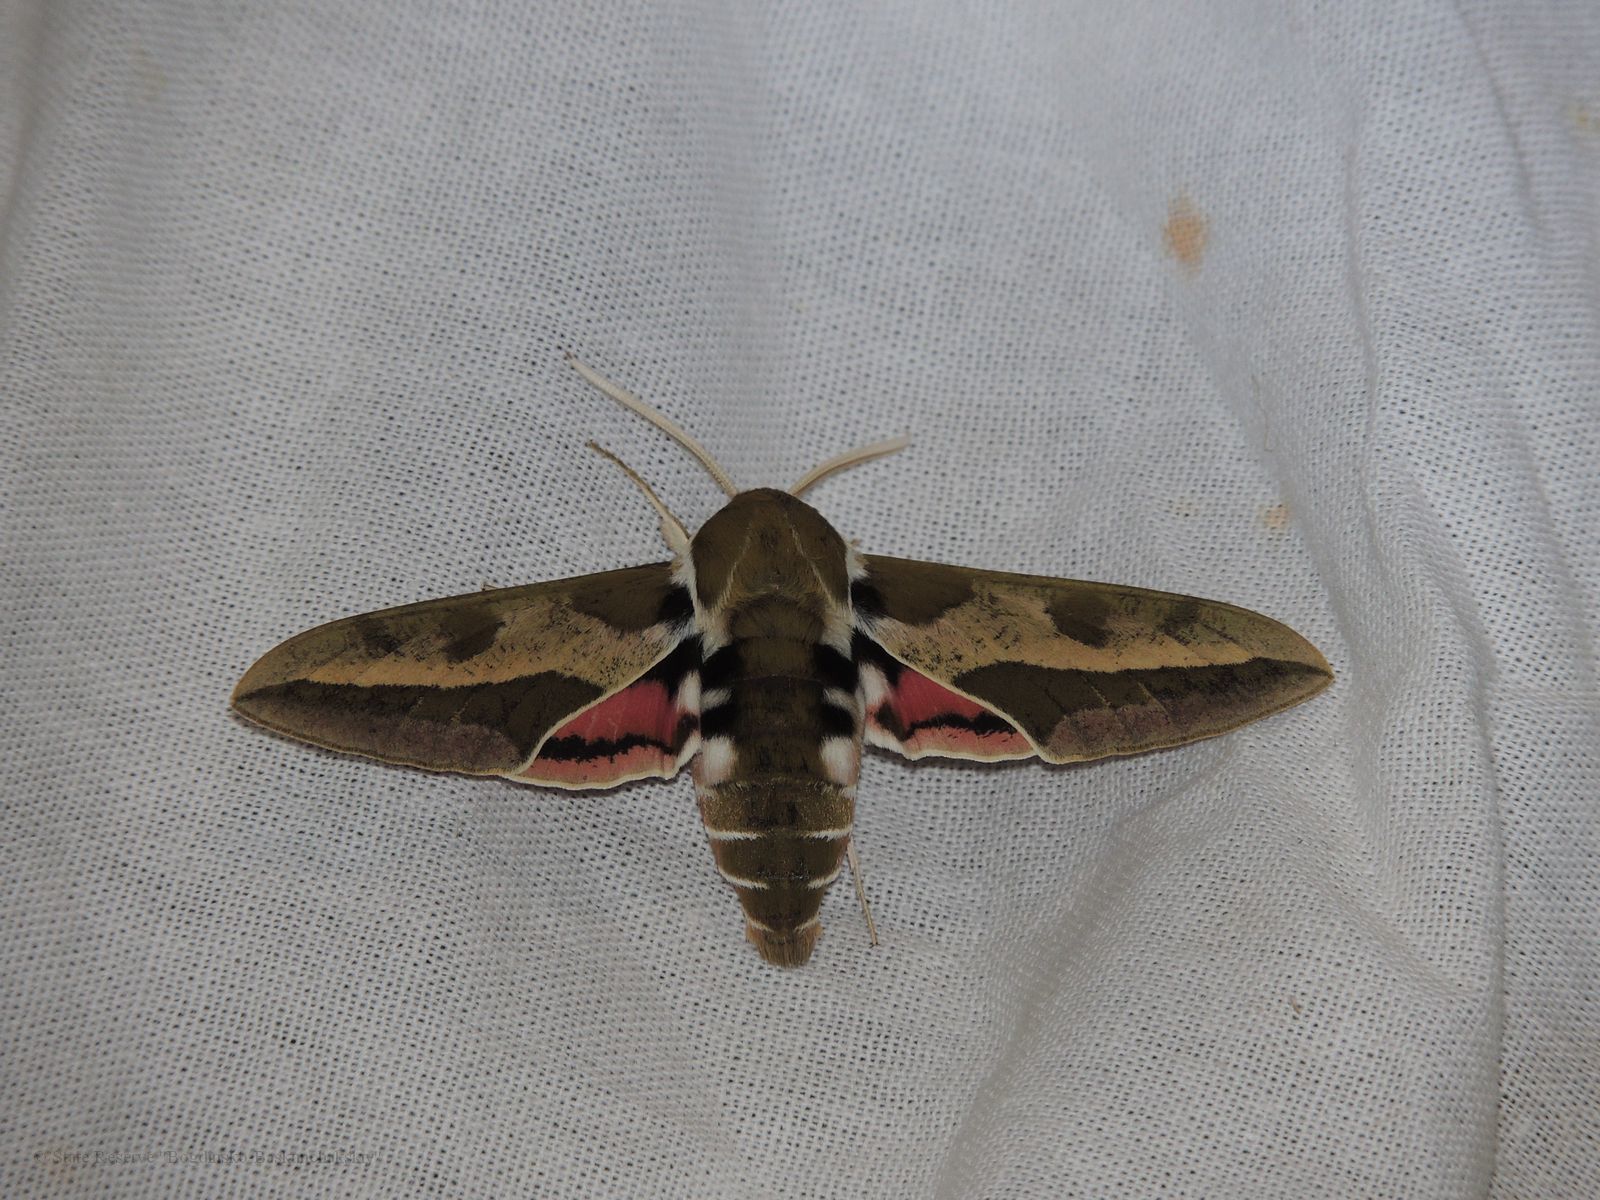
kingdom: Animalia
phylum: Arthropoda
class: Insecta
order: Lepidoptera
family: Sphingidae
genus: Hyles
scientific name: Hyles euphorbiae
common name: Spurge hawk-moth
